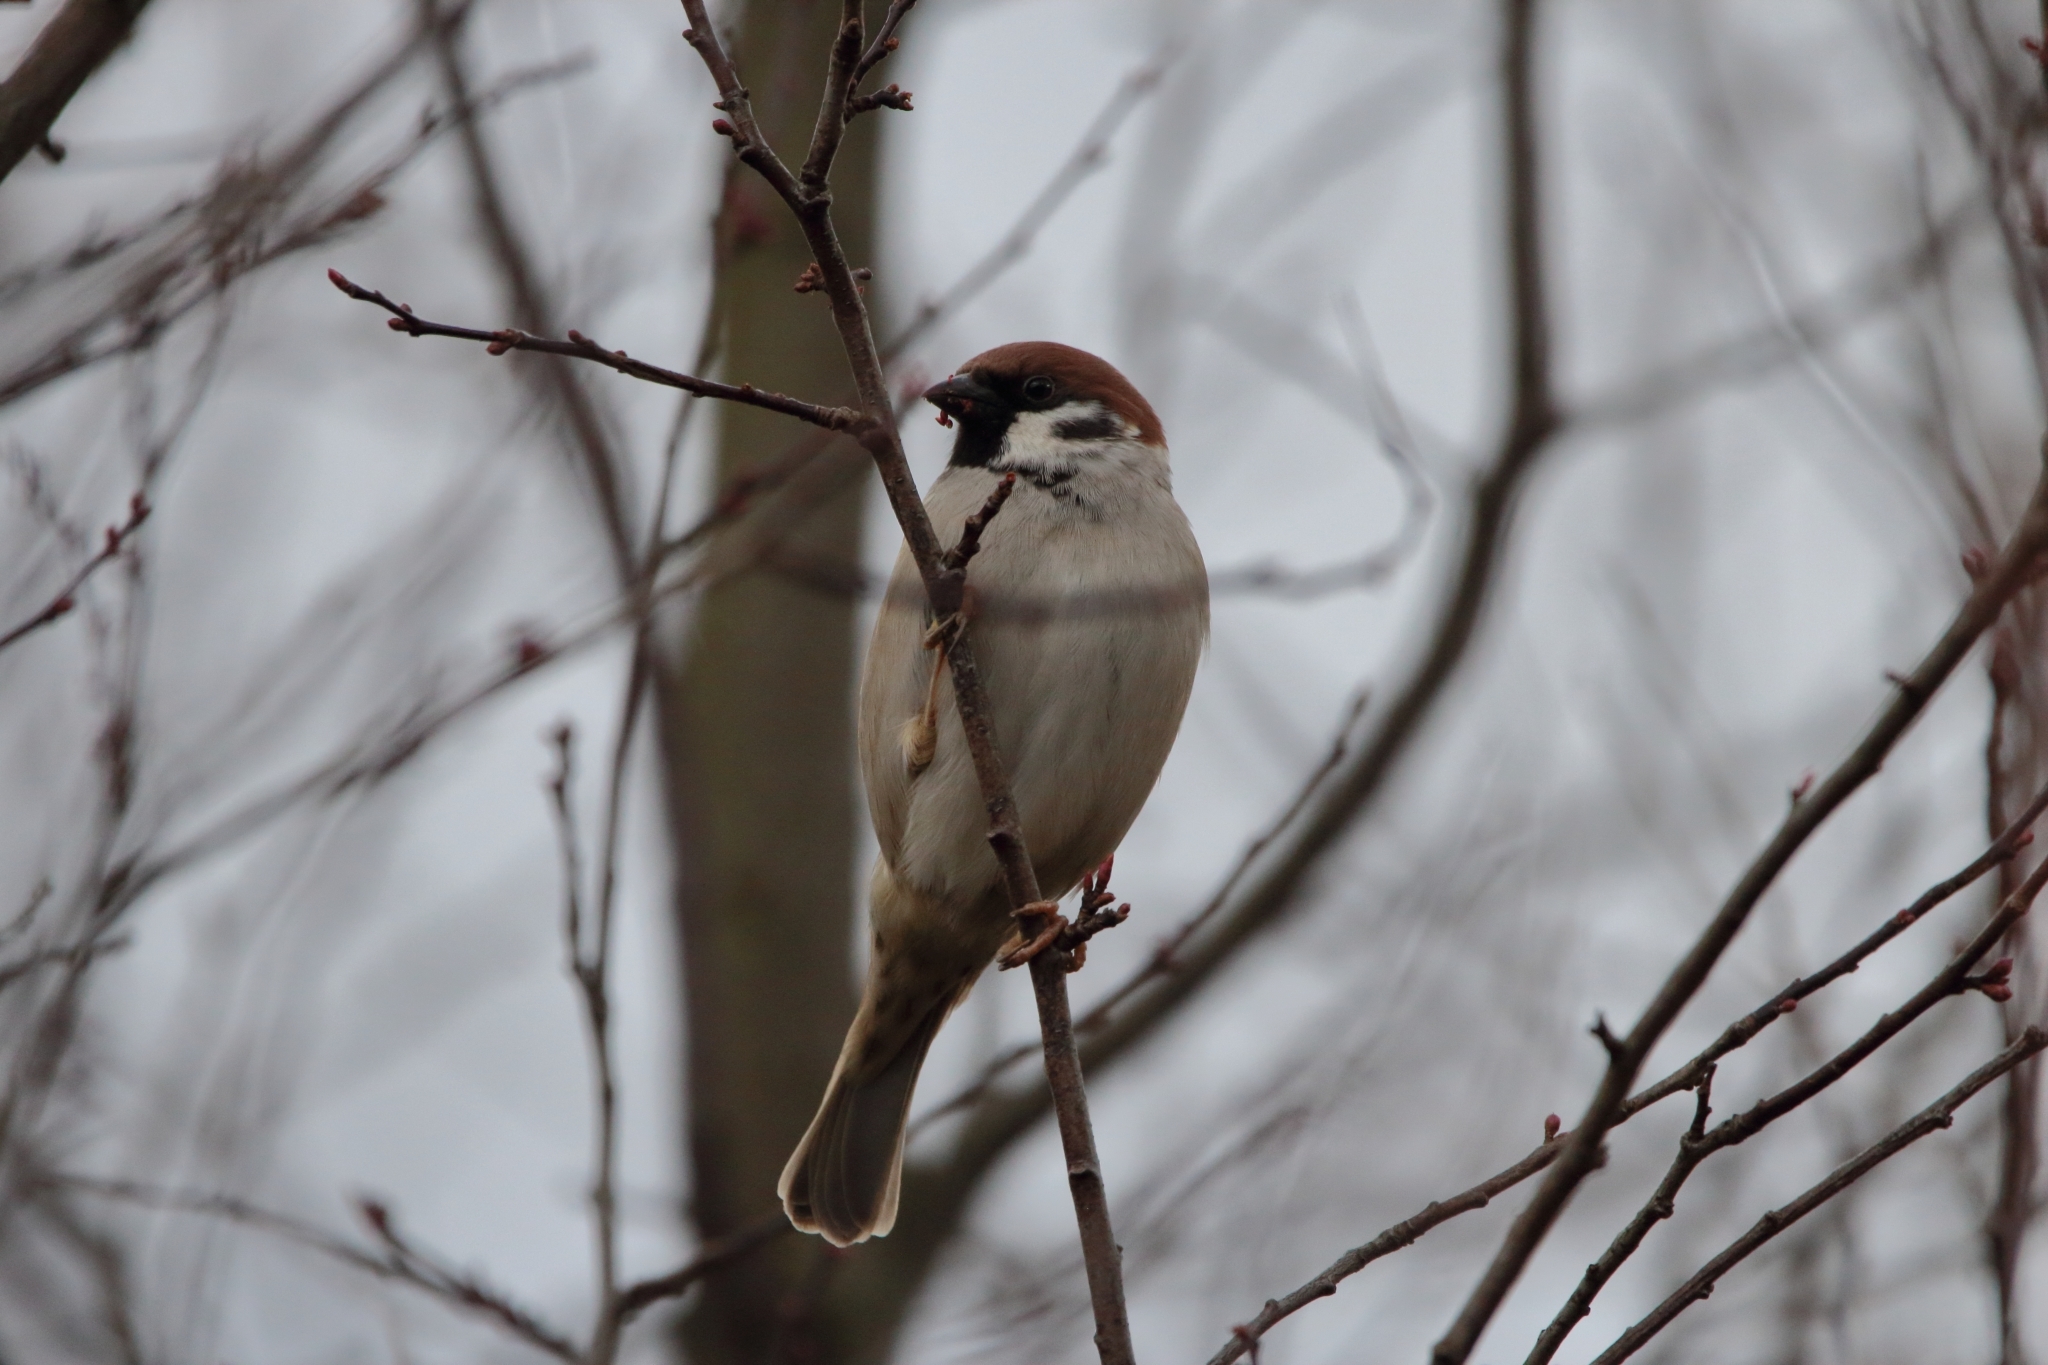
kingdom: Animalia
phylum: Chordata
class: Aves
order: Passeriformes
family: Passeridae
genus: Passer
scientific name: Passer montanus
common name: Eurasian tree sparrow
